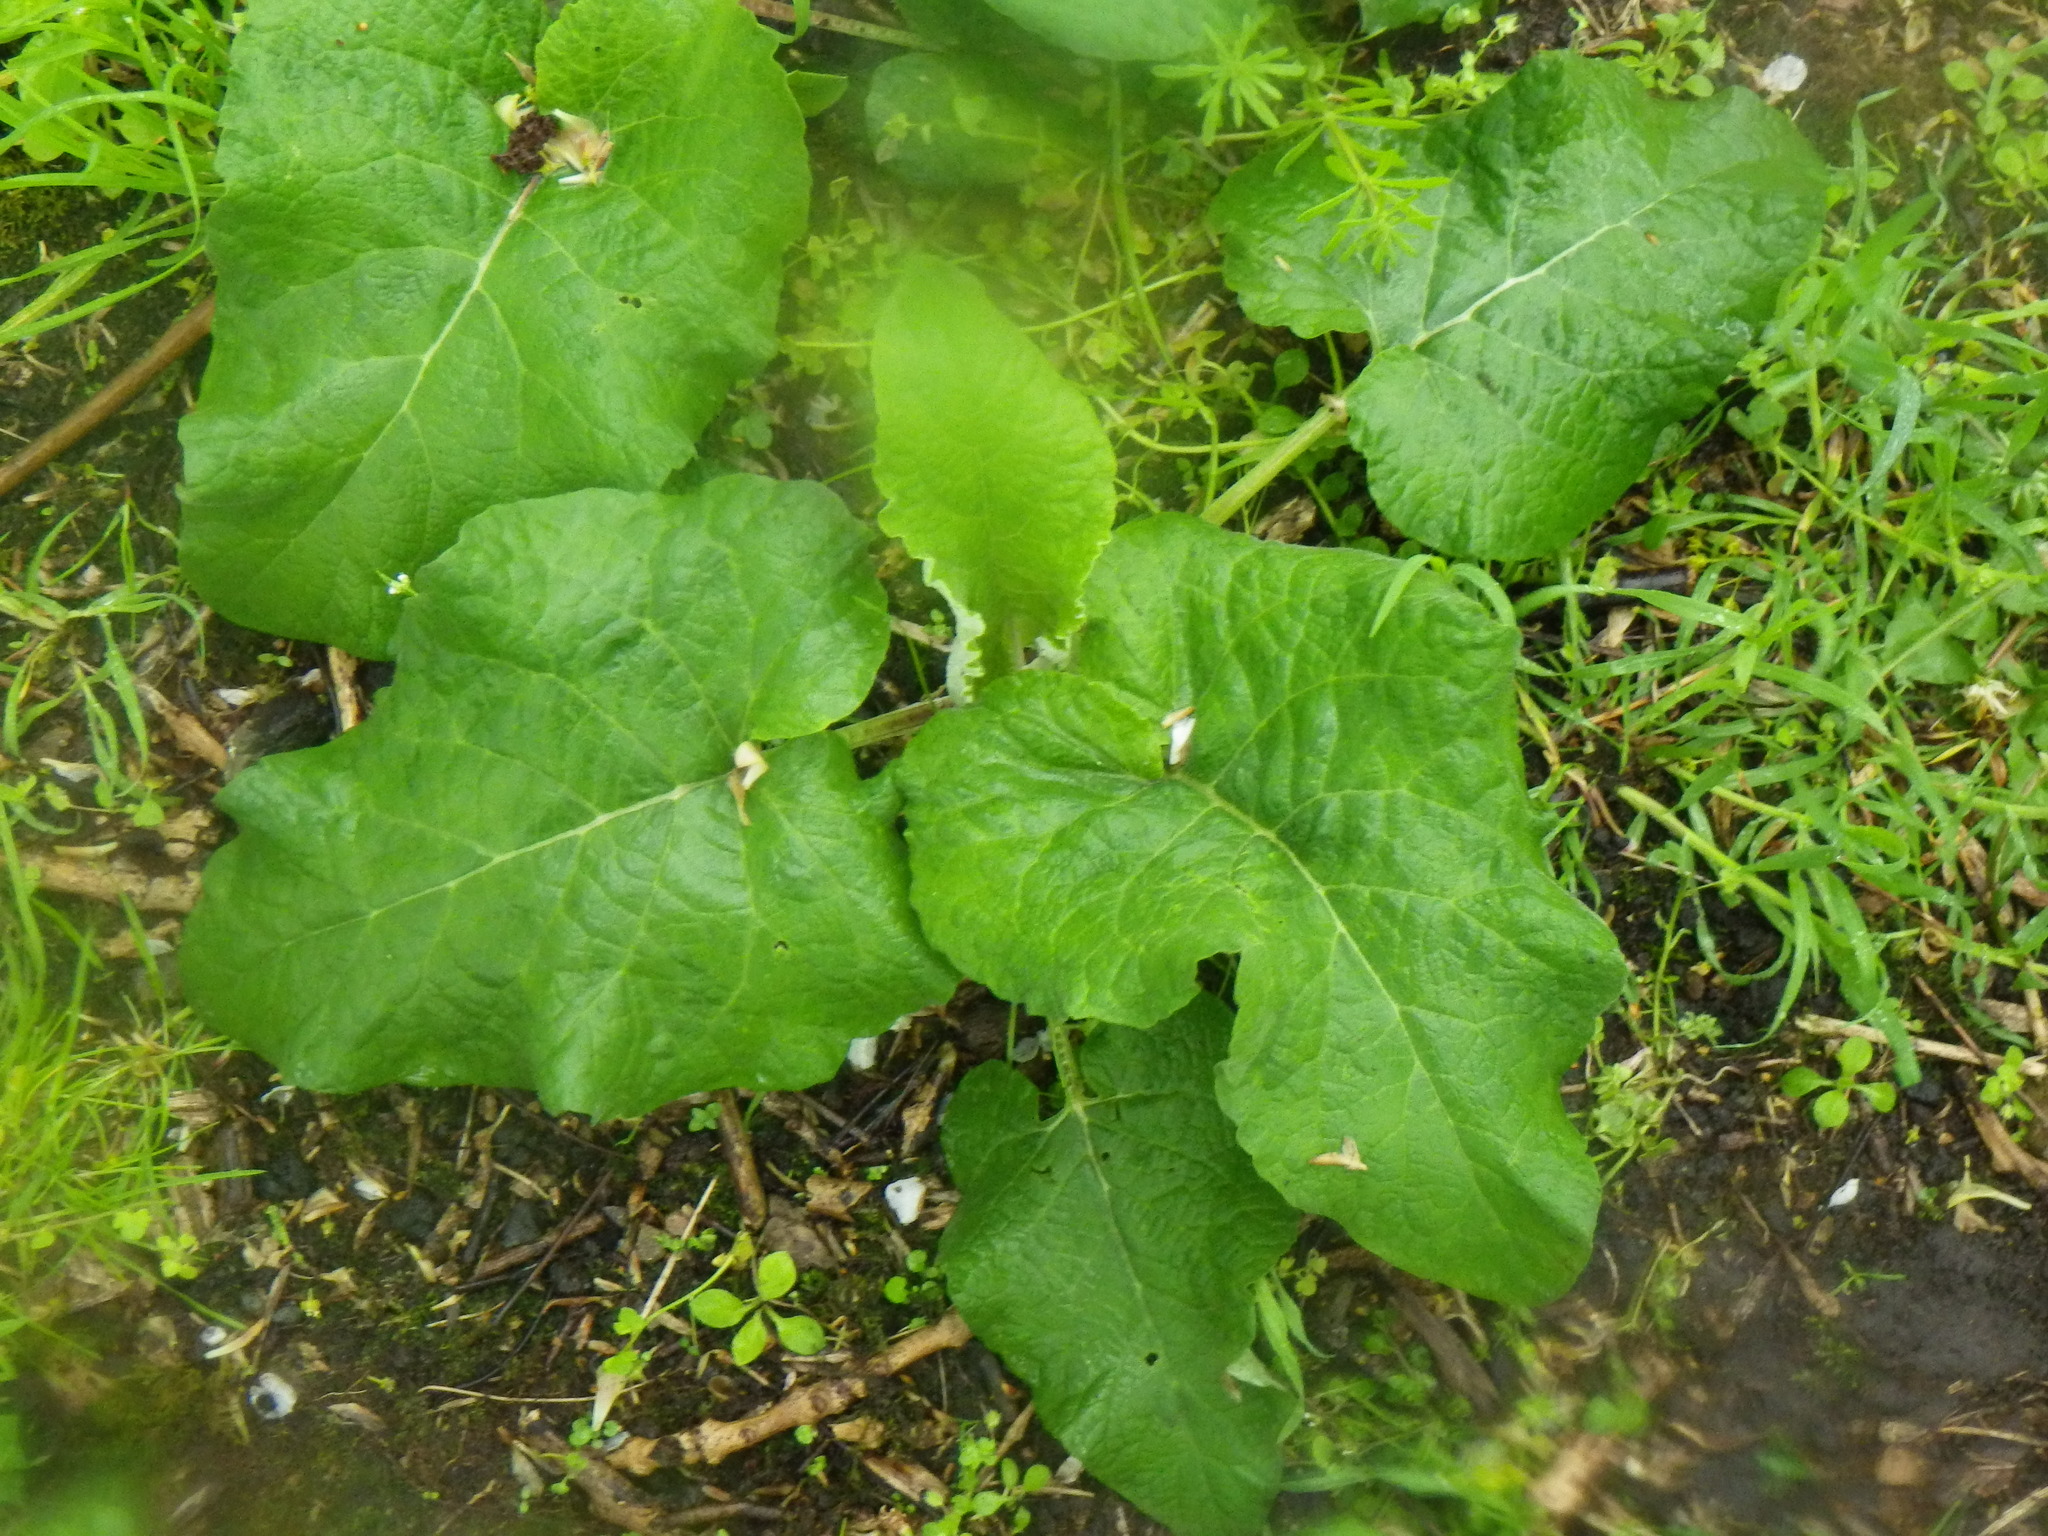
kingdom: Plantae
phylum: Tracheophyta
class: Magnoliopsida
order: Asterales
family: Asteraceae
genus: Arctium
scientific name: Arctium minus
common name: Lesser burdock
